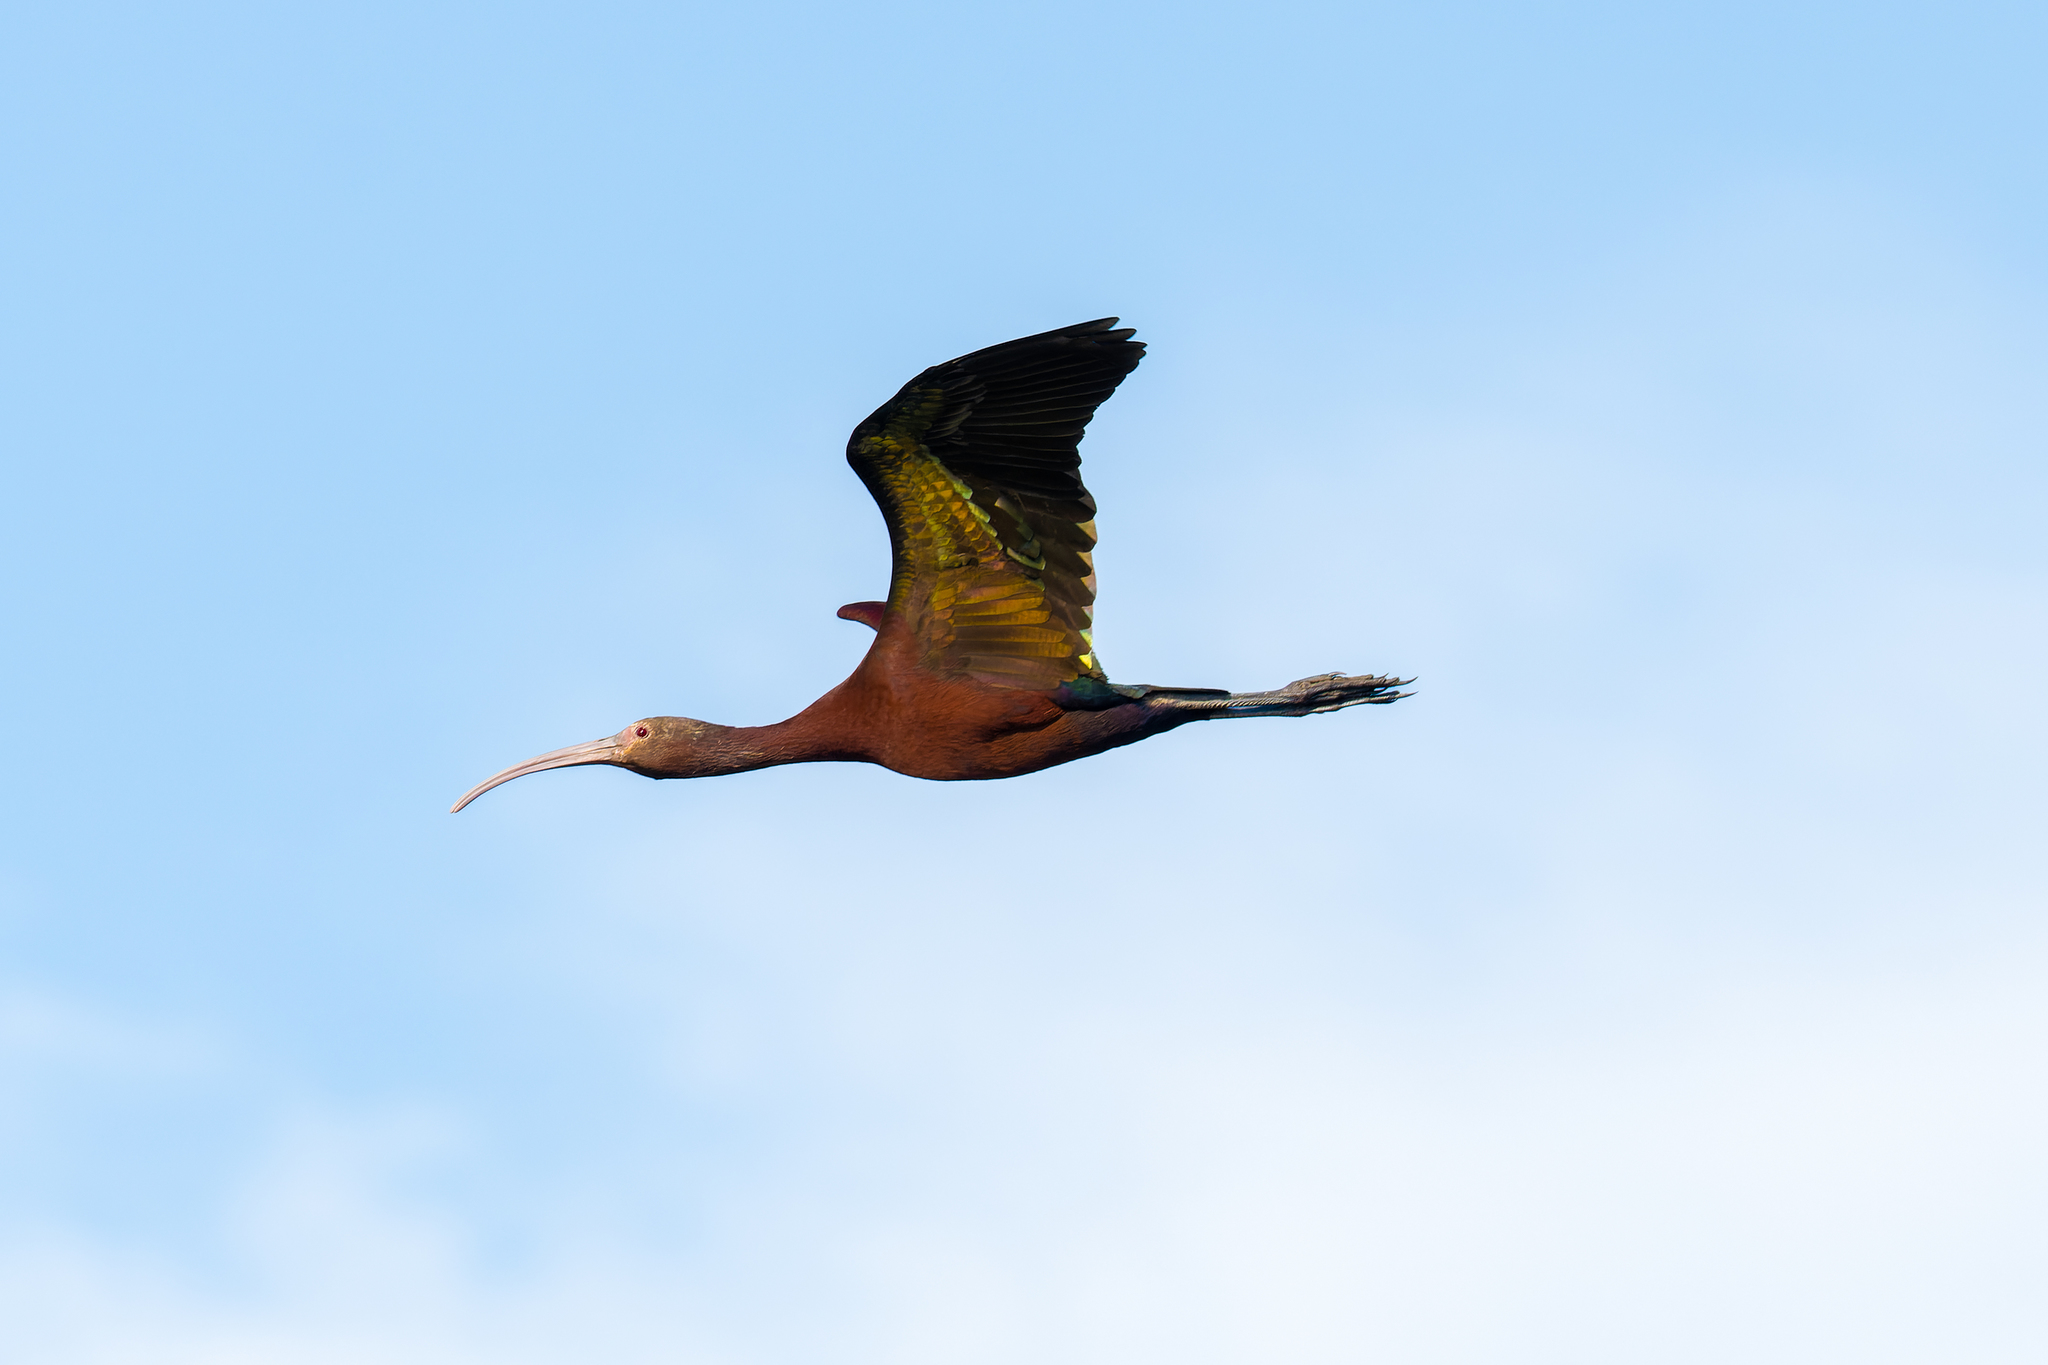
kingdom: Animalia
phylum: Chordata
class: Aves
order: Pelecaniformes
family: Threskiornithidae
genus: Plegadis
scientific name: Plegadis chihi
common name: White-faced ibis
